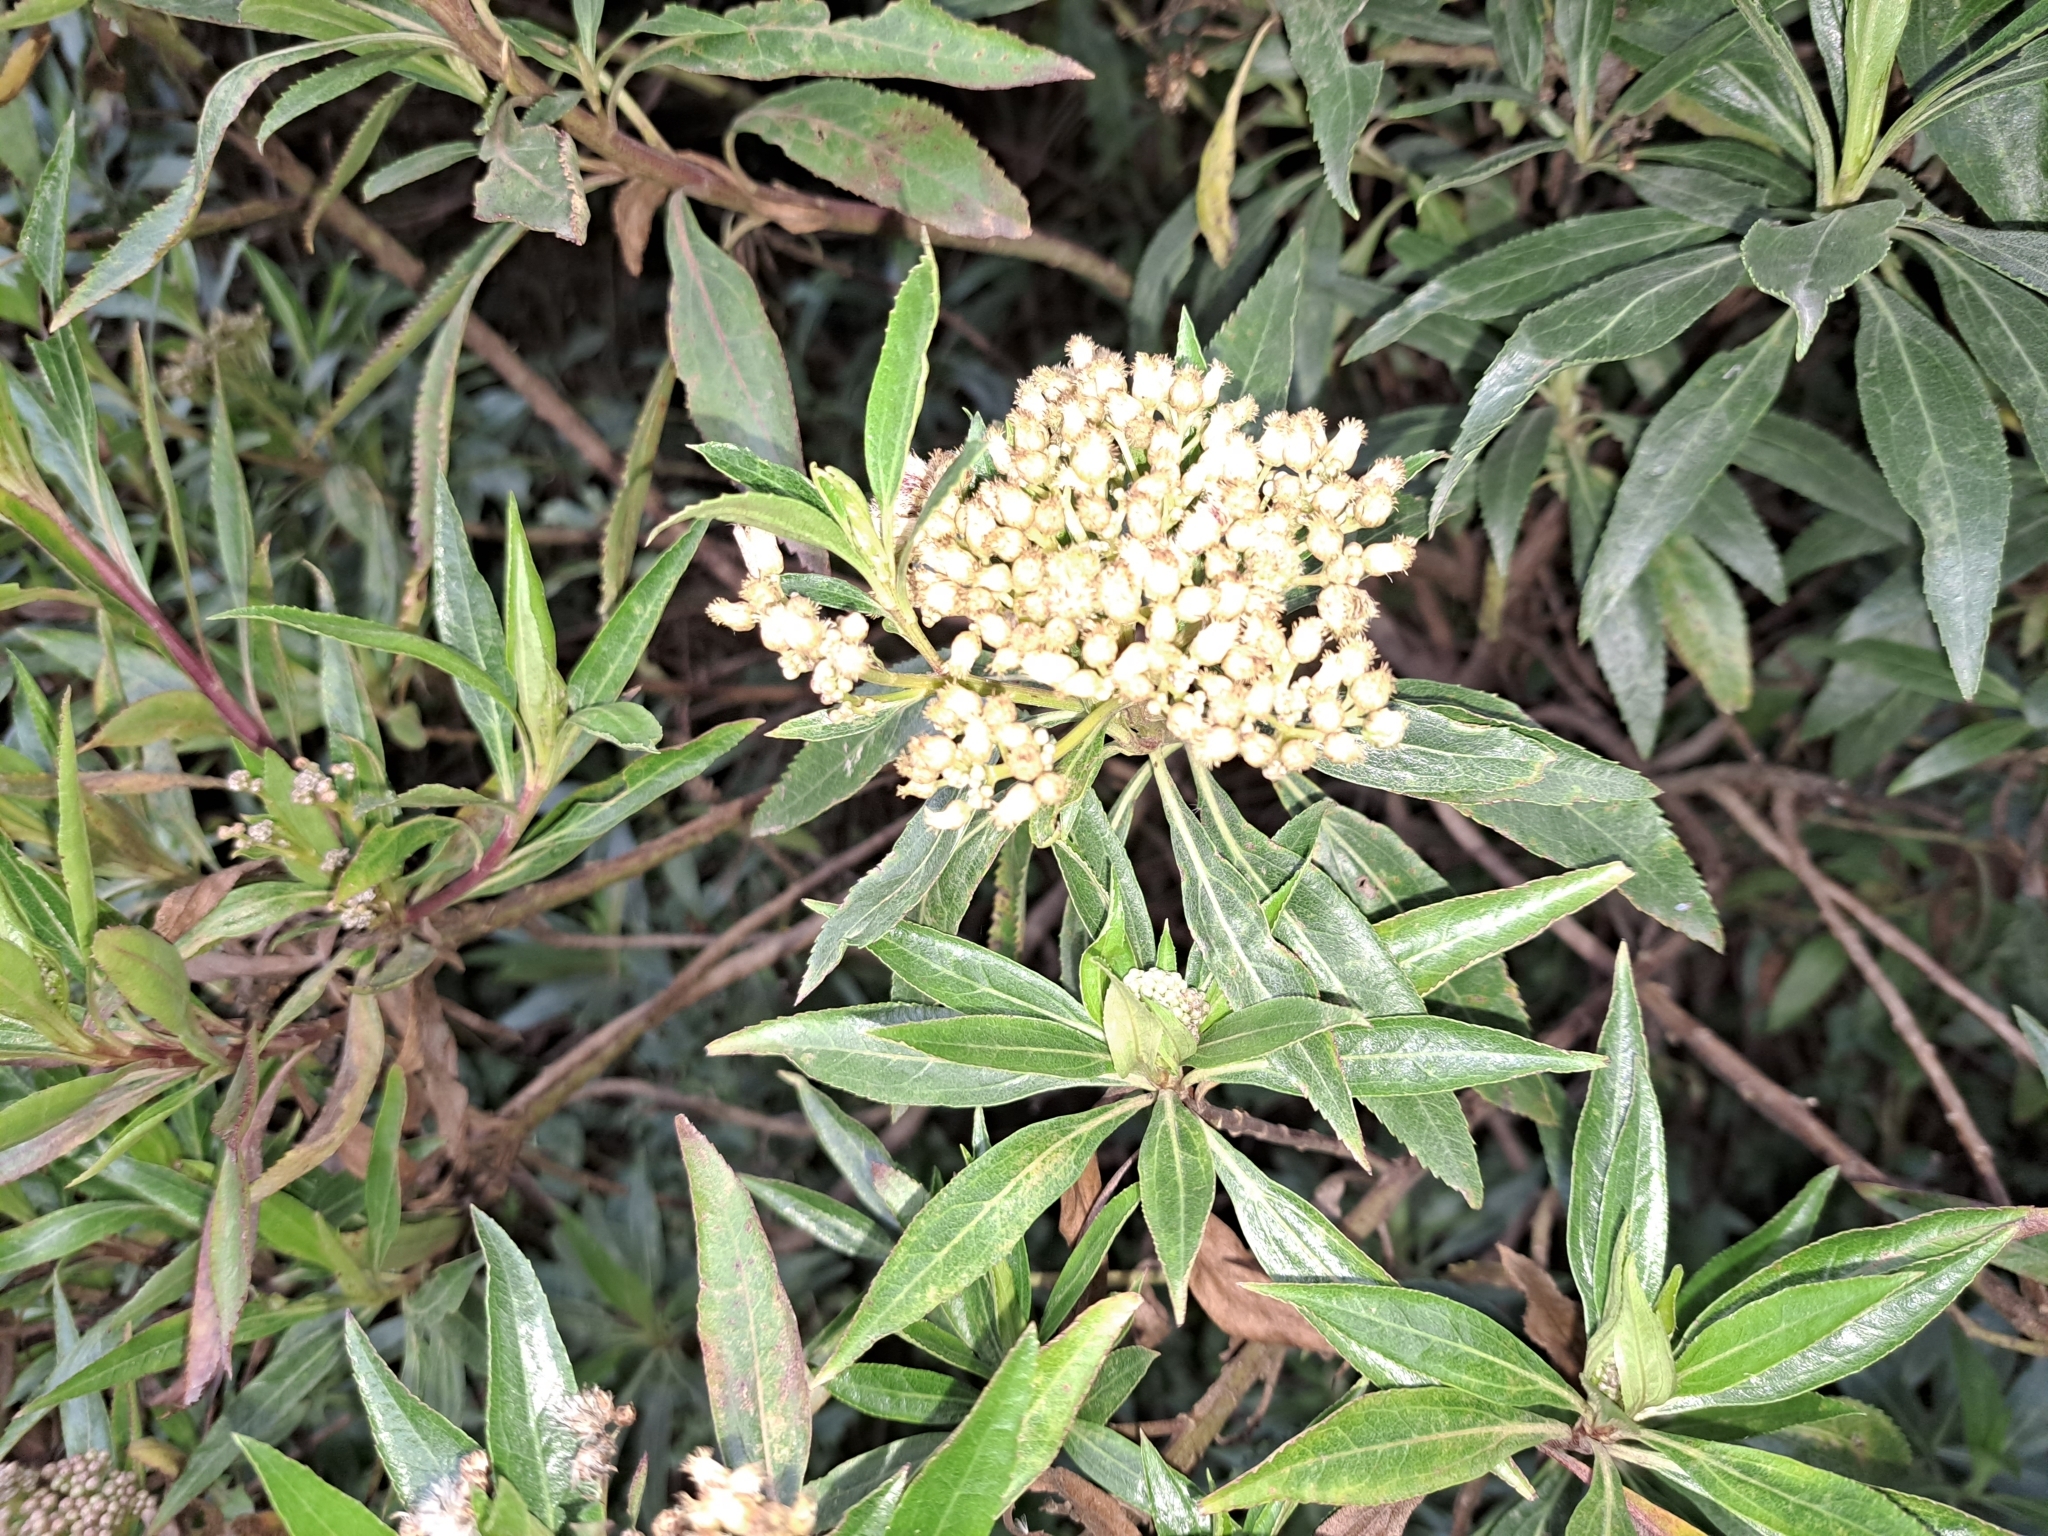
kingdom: Plantae
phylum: Tracheophyta
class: Magnoliopsida
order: Asterales
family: Asteraceae
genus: Baccharis
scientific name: Baccharis latifolia
